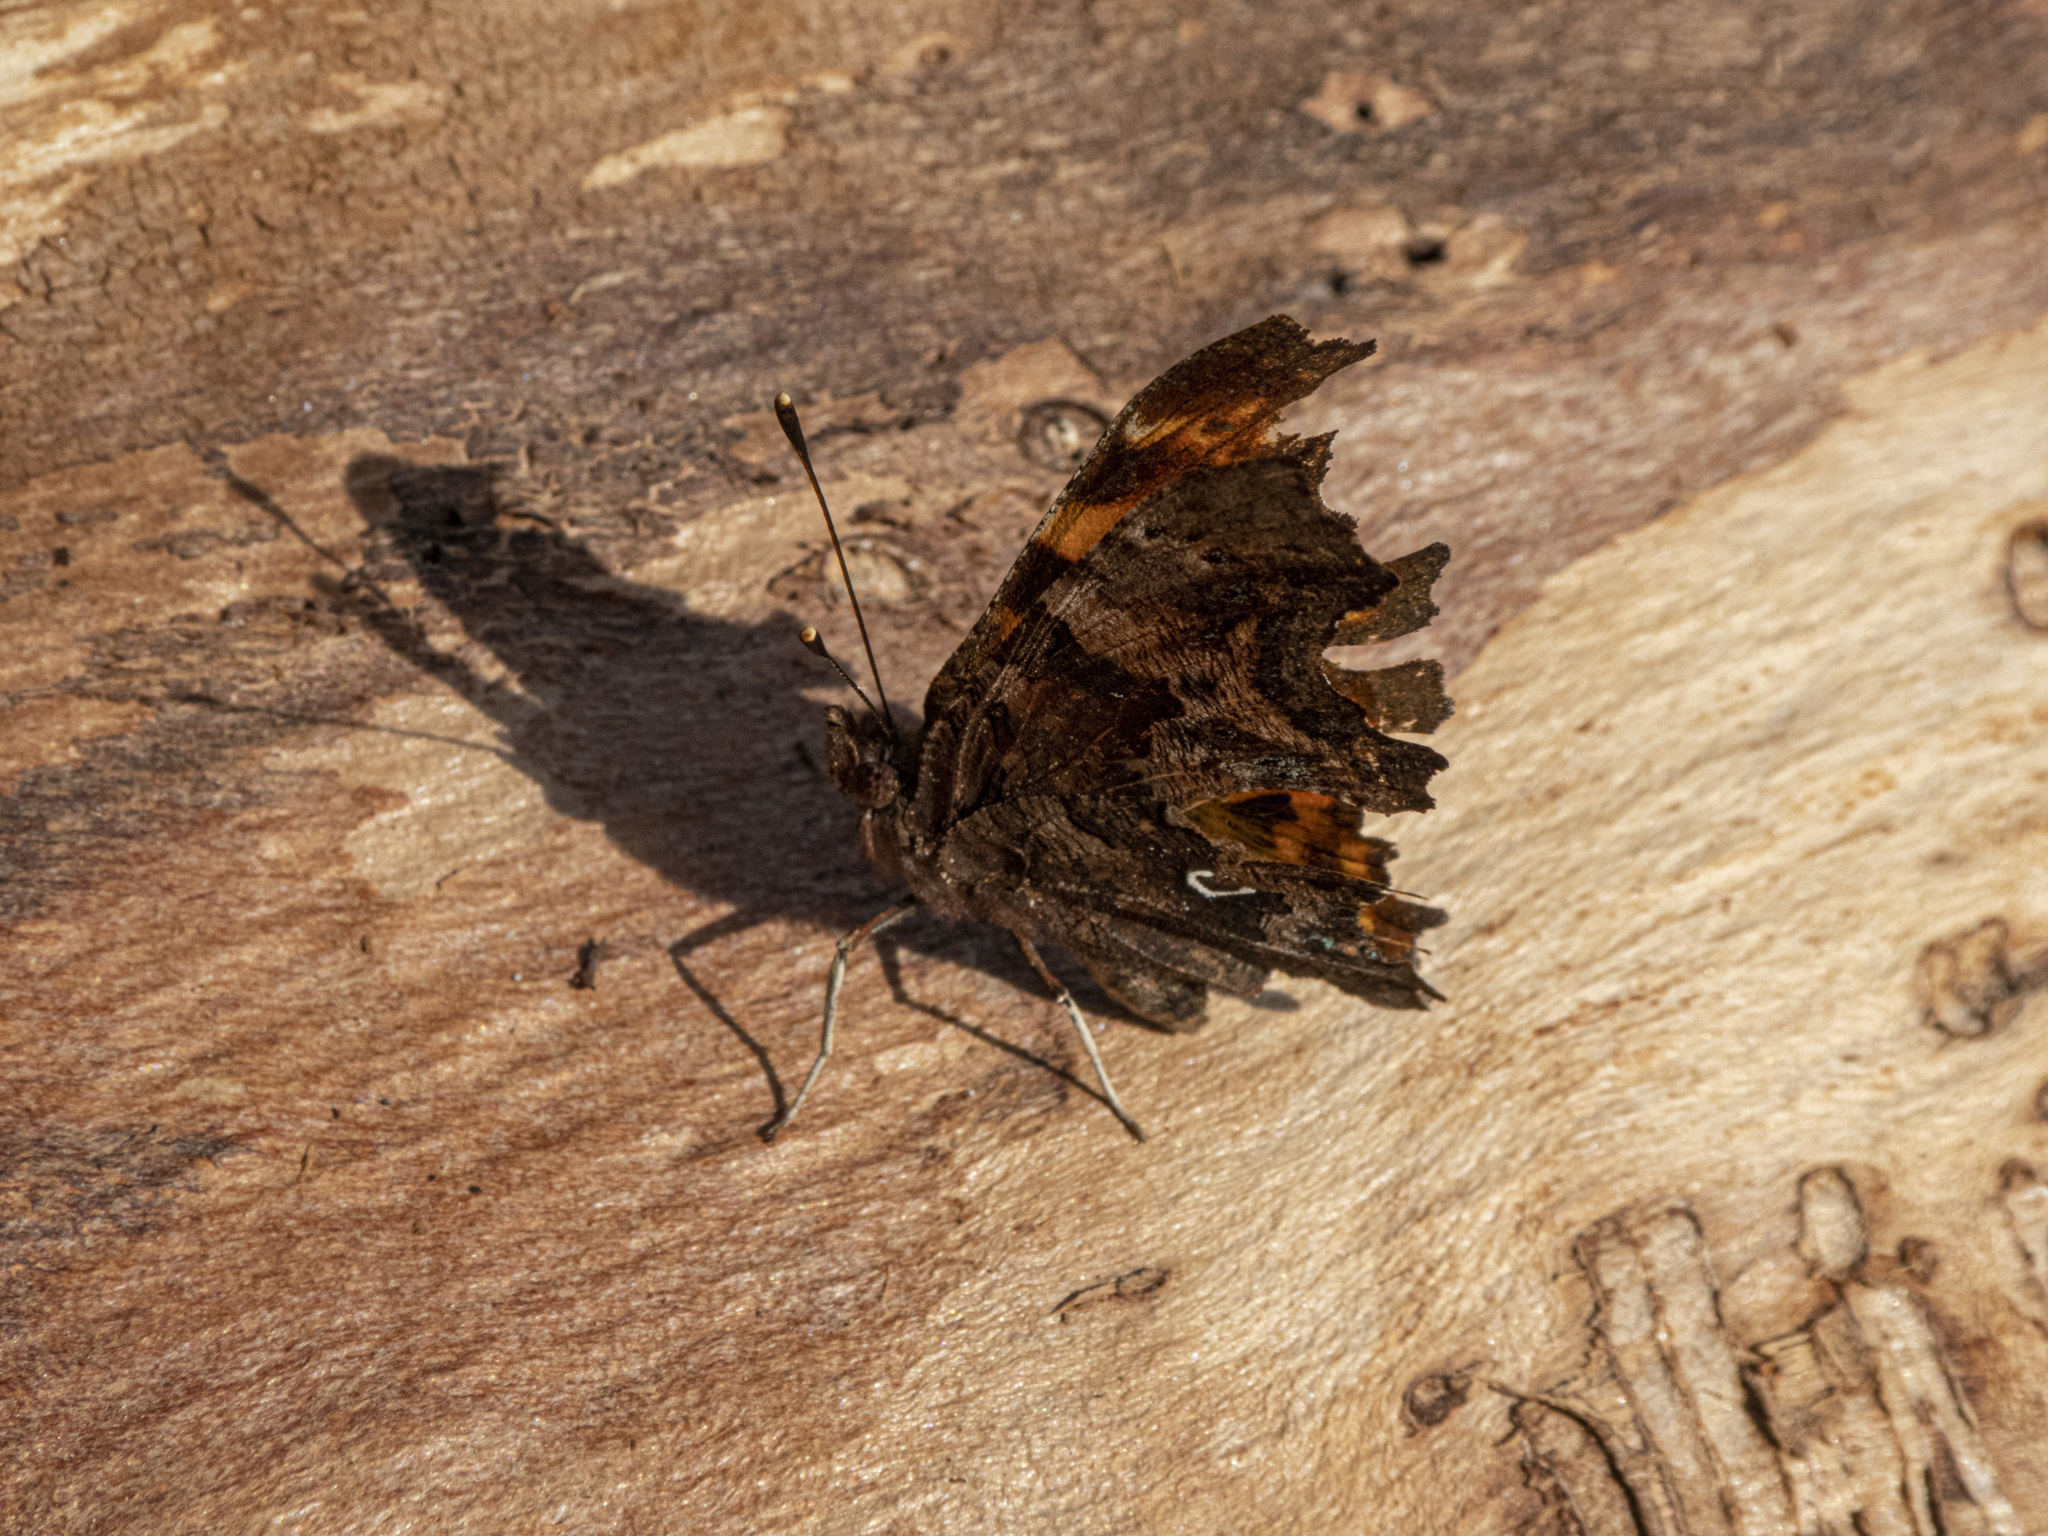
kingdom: Animalia
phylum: Arthropoda
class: Insecta
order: Lepidoptera
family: Nymphalidae
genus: Polygonia
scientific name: Polygonia c-album
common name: Comma
